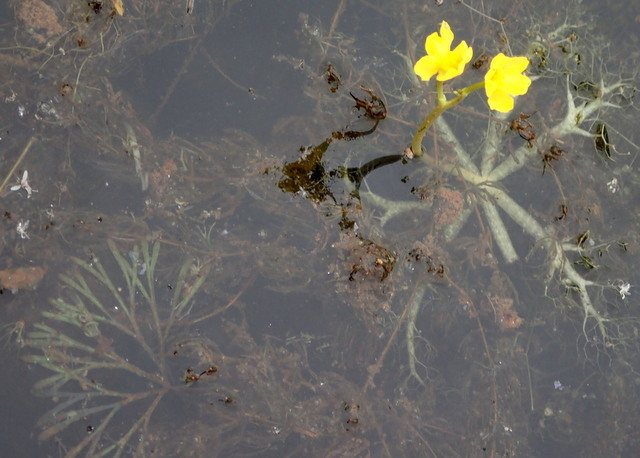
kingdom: Plantae
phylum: Tracheophyta
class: Magnoliopsida
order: Lamiales
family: Lentibulariaceae
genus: Utricularia
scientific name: Utricularia inflata
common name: Floating bladderwort
